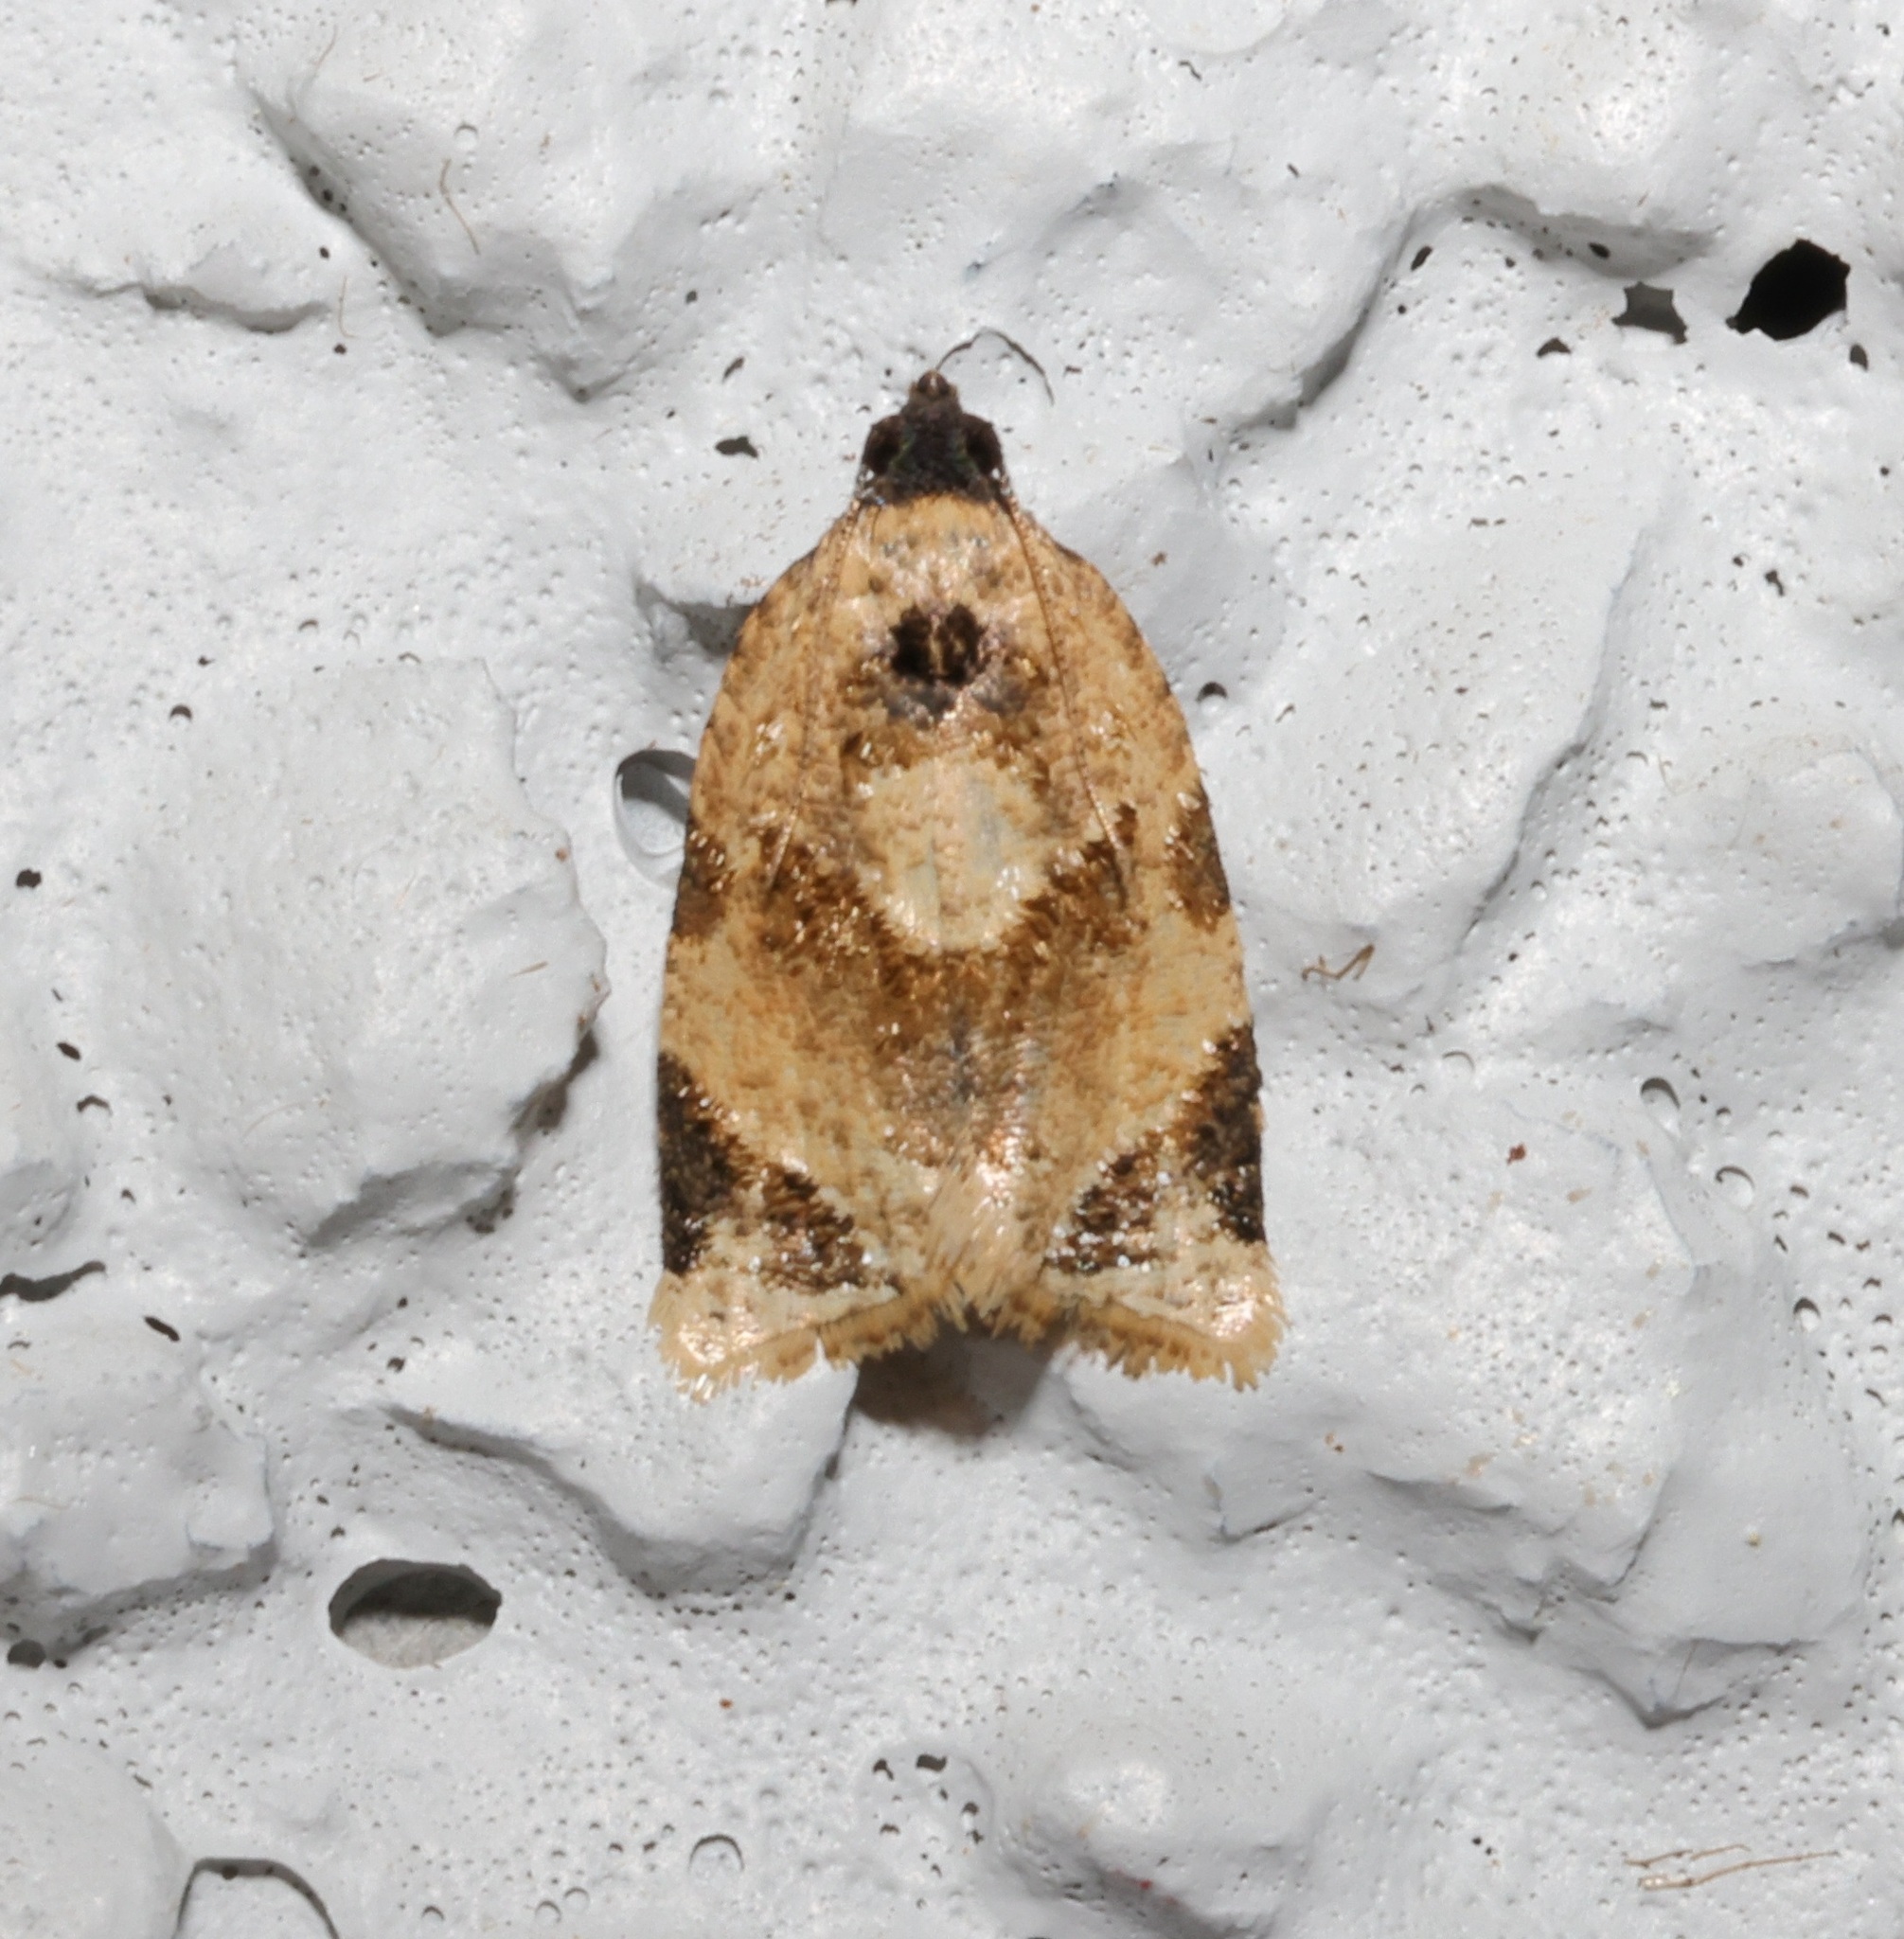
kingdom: Animalia
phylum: Arthropoda
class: Insecta
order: Lepidoptera
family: Tortricidae
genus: Neocalyptis
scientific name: Neocalyptis liratana
